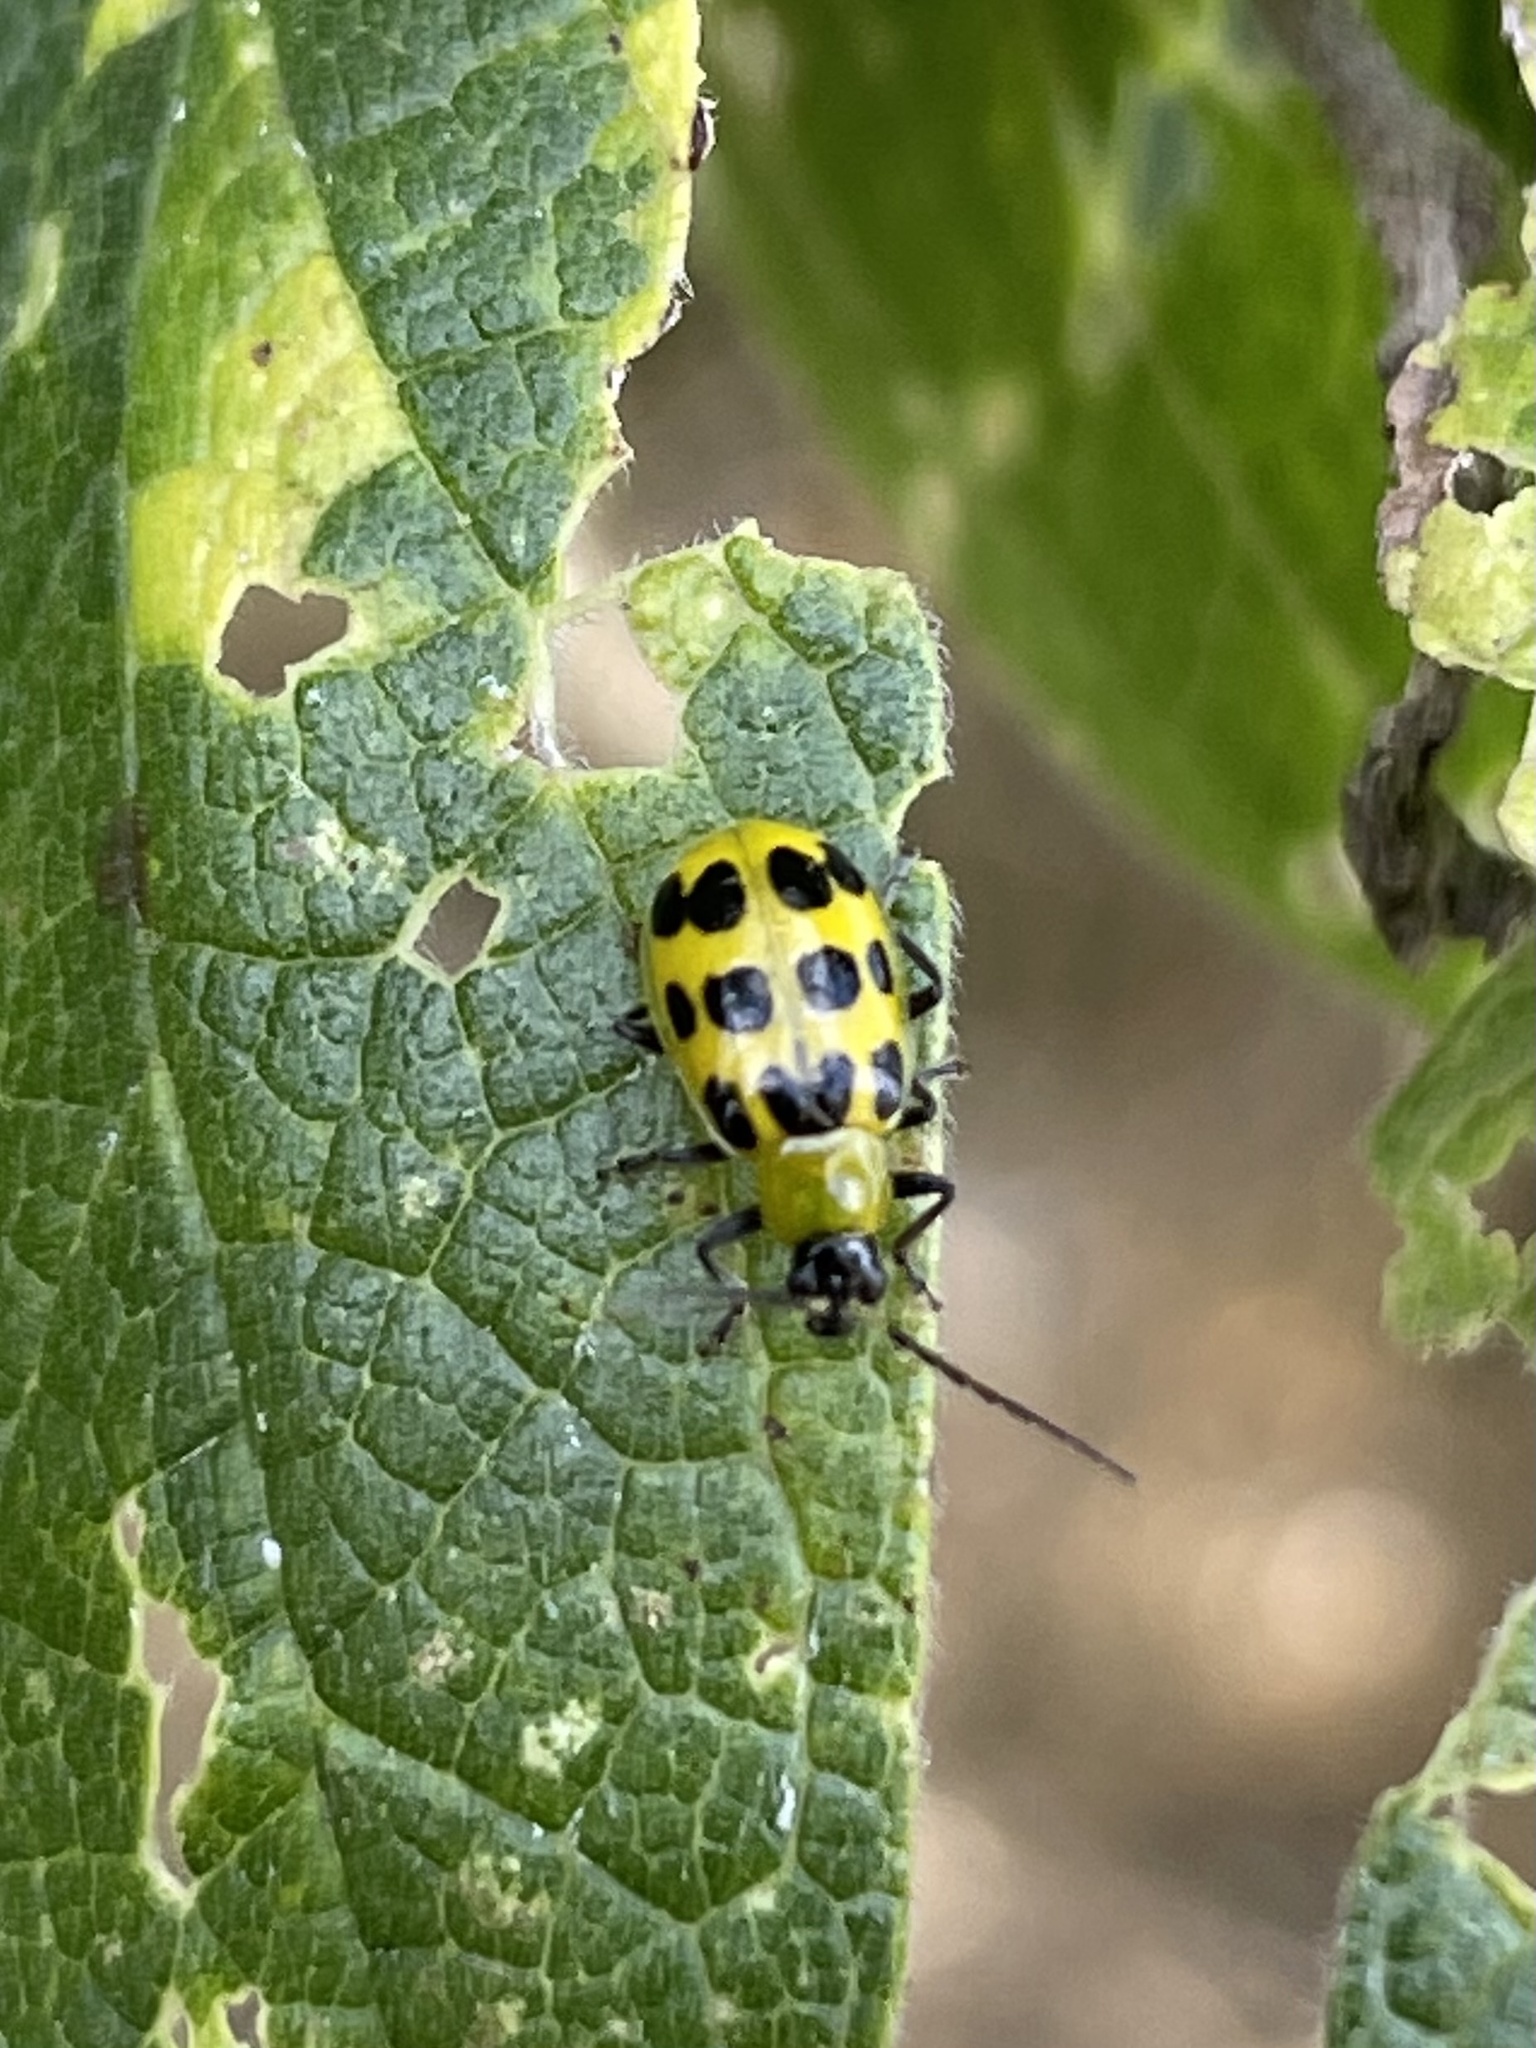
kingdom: Animalia
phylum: Arthropoda
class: Insecta
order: Coleoptera
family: Chrysomelidae
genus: Diabrotica
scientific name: Diabrotica undecimpunctata
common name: Spotted cucumber beetle
